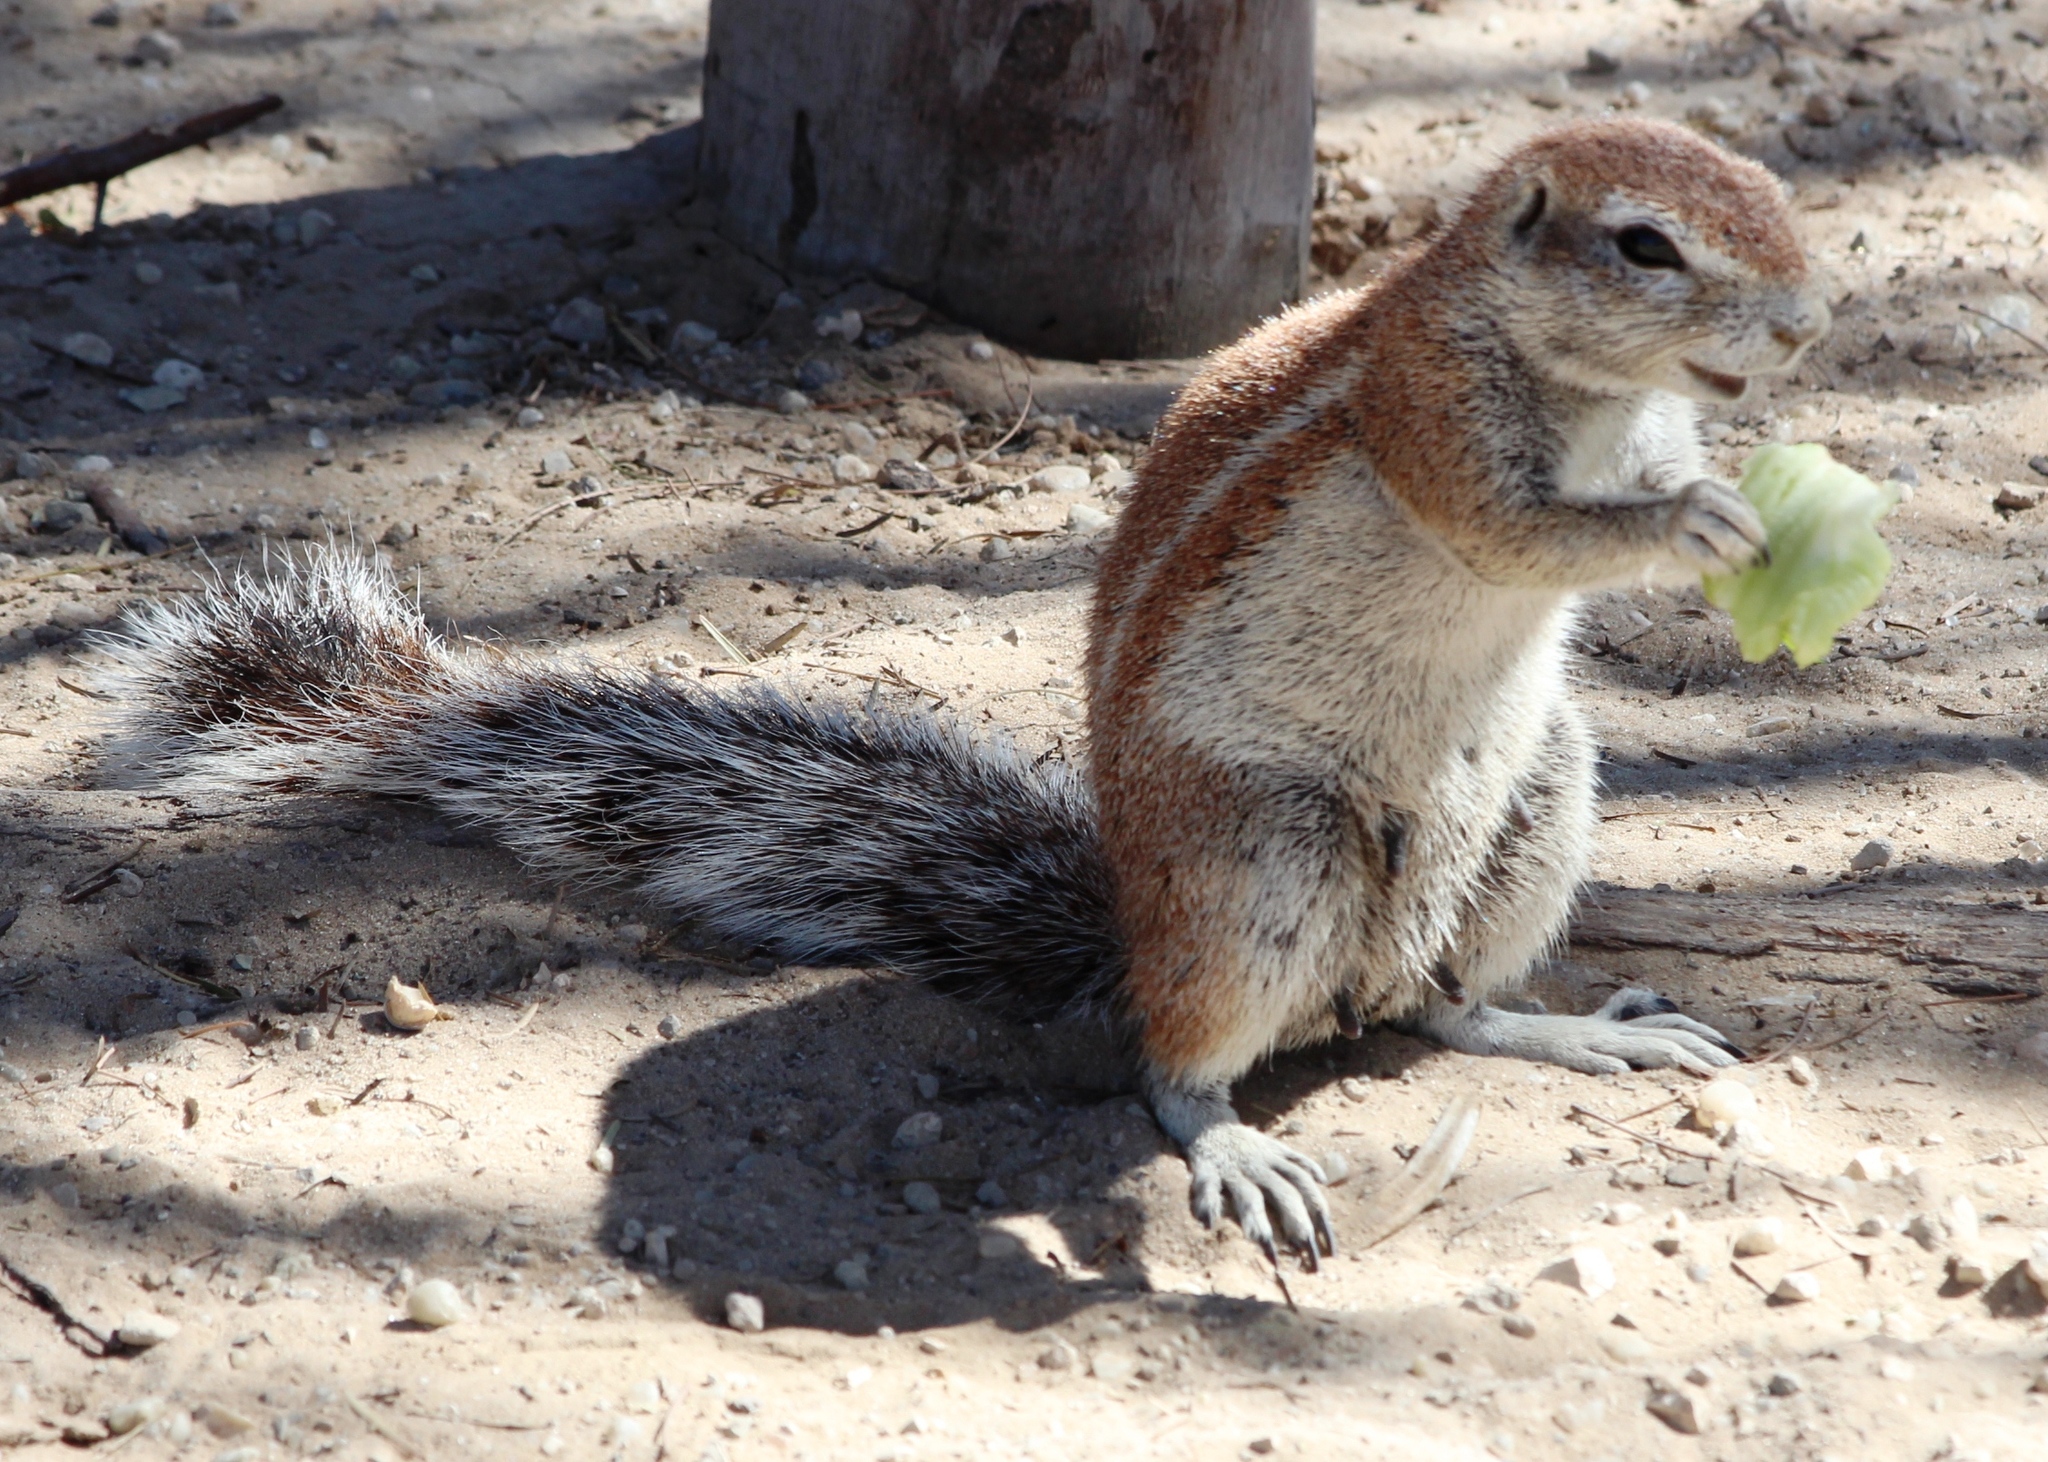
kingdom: Animalia
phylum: Chordata
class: Mammalia
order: Rodentia
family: Sciuridae
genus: Xerus
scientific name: Xerus inauris
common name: South african ground squirrel
